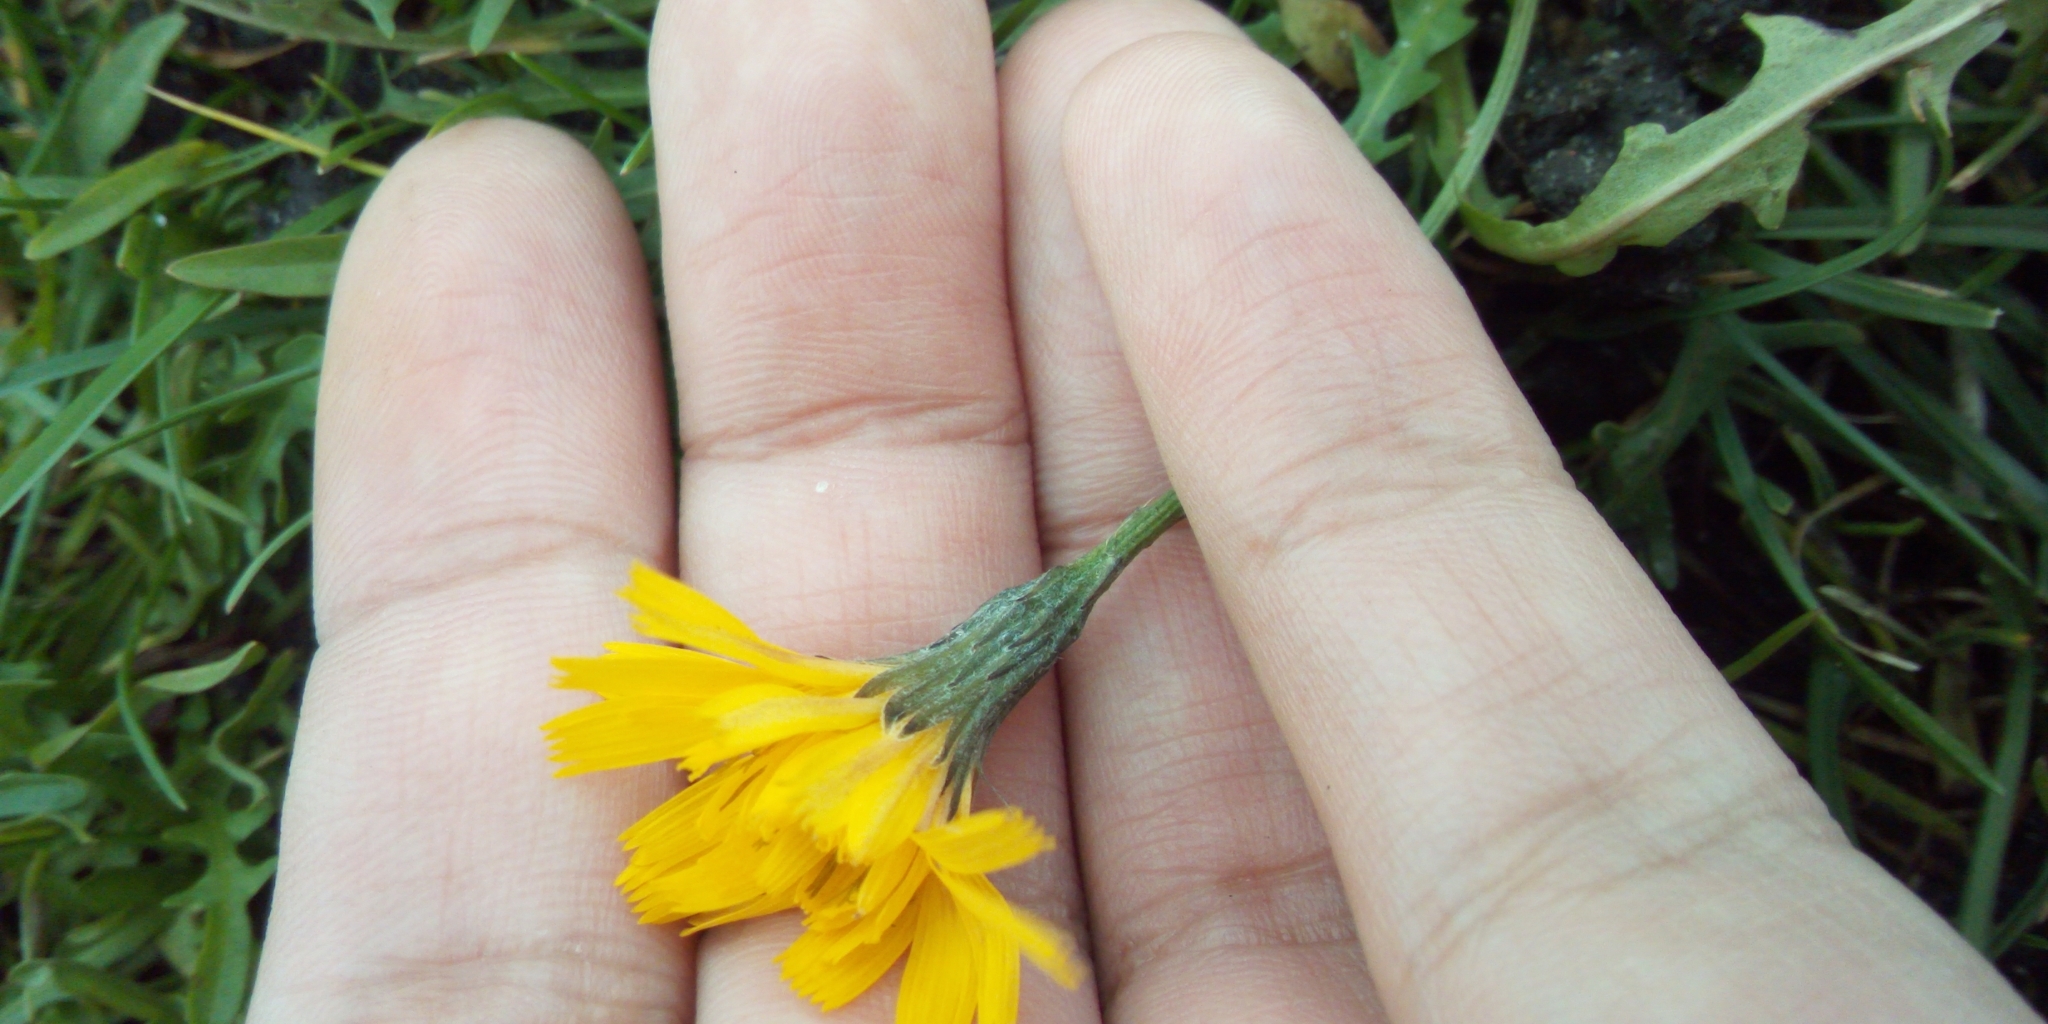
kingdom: Plantae
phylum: Tracheophyta
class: Magnoliopsida
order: Asterales
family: Asteraceae
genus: Scorzoneroides
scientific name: Scorzoneroides autumnalis
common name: Autumn hawkbit
